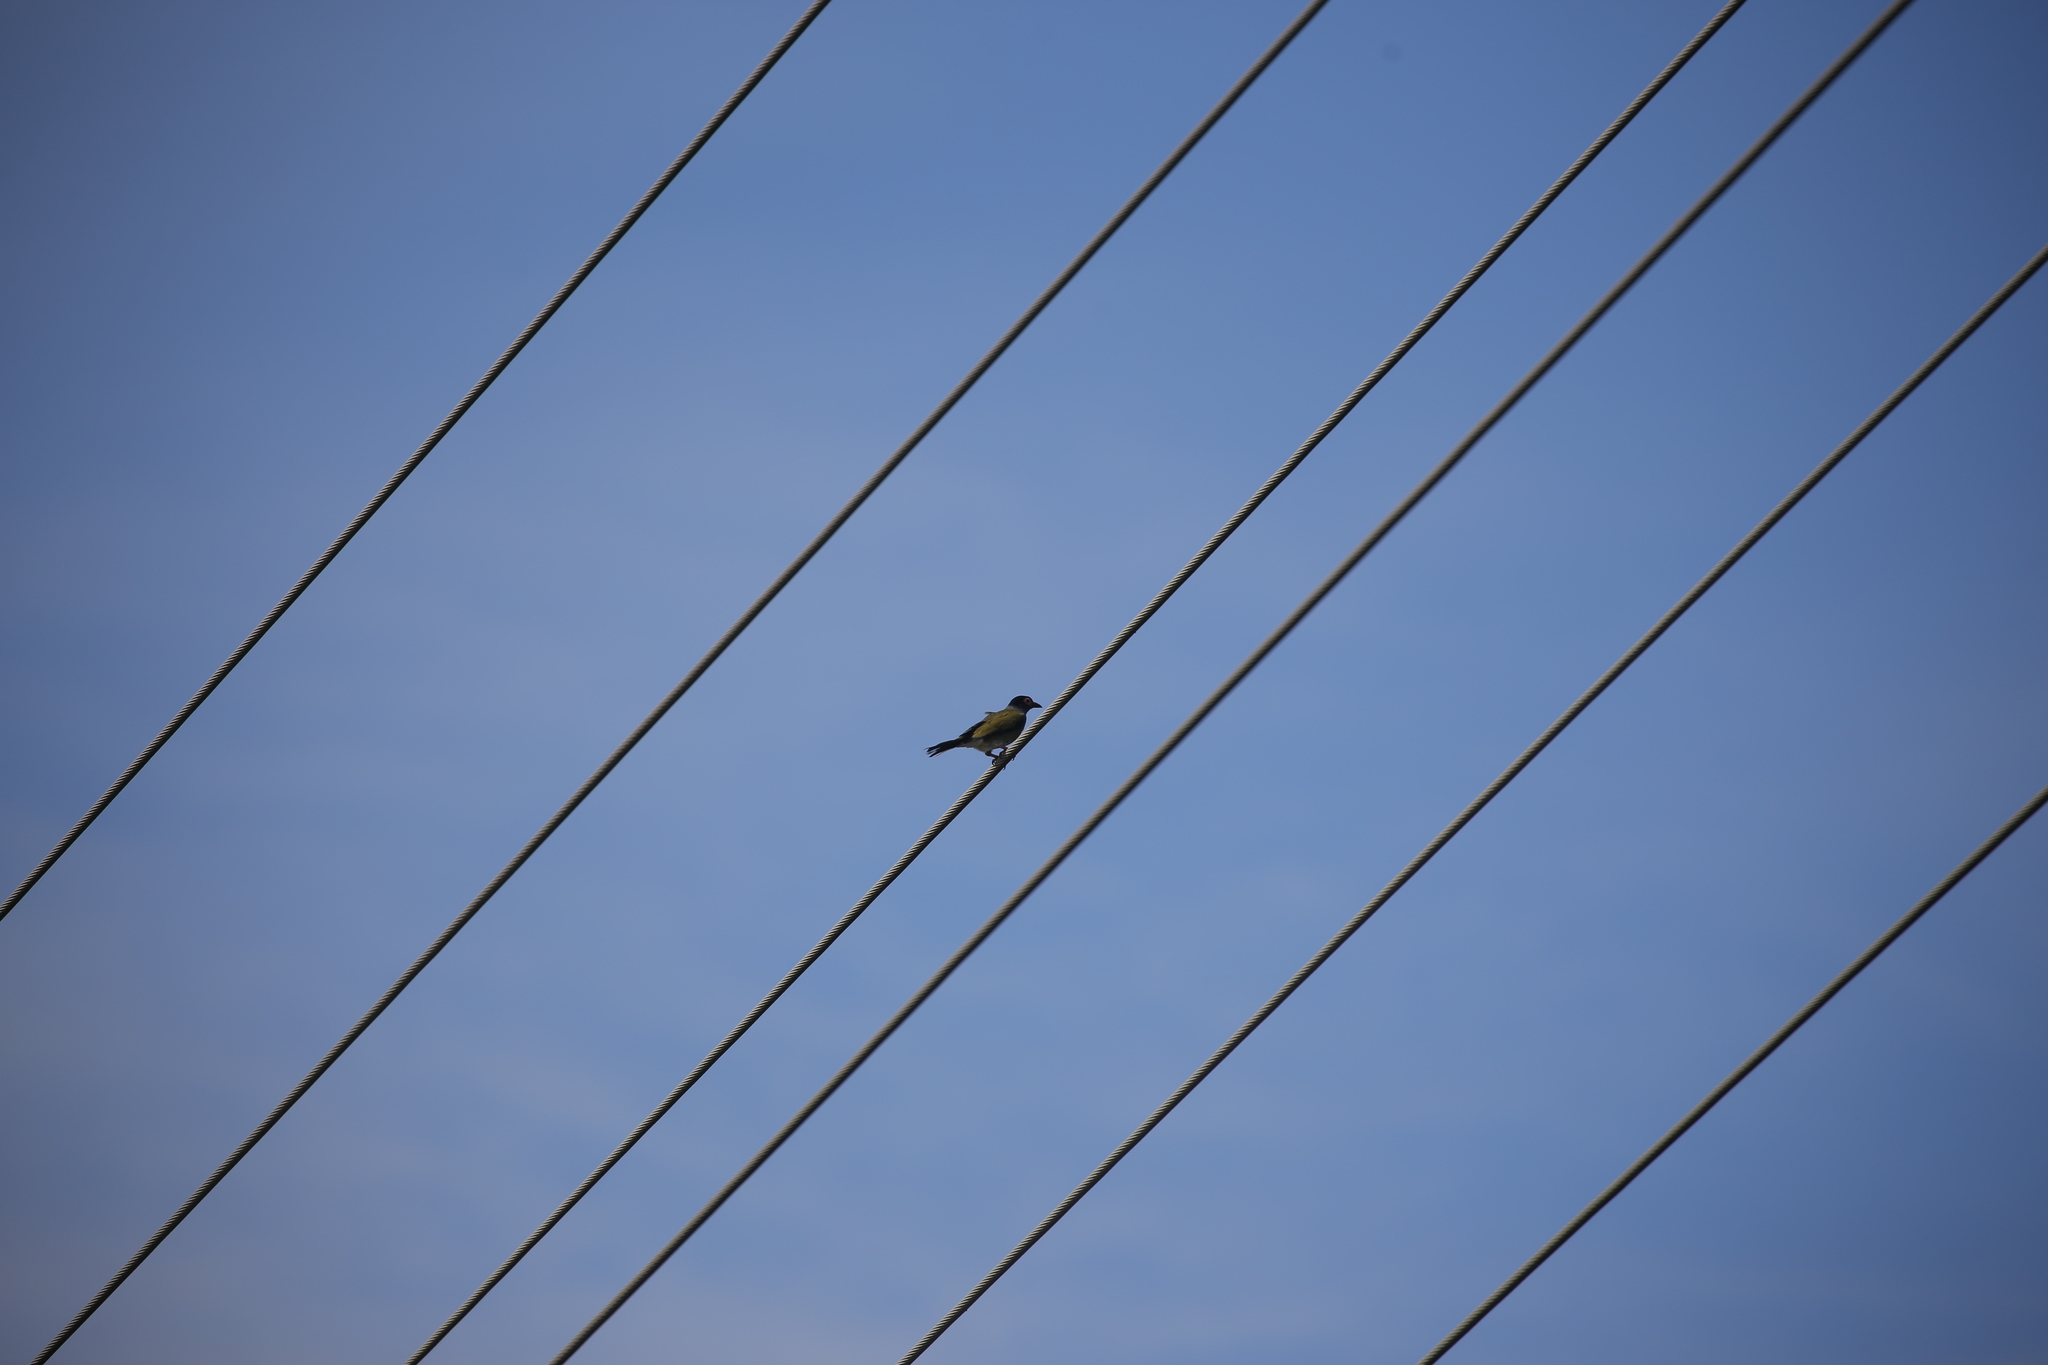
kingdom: Animalia
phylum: Chordata
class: Aves
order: Passeriformes
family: Oriolidae
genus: Sphecotheres
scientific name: Sphecotheres vieilloti
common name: Australasian figbird
